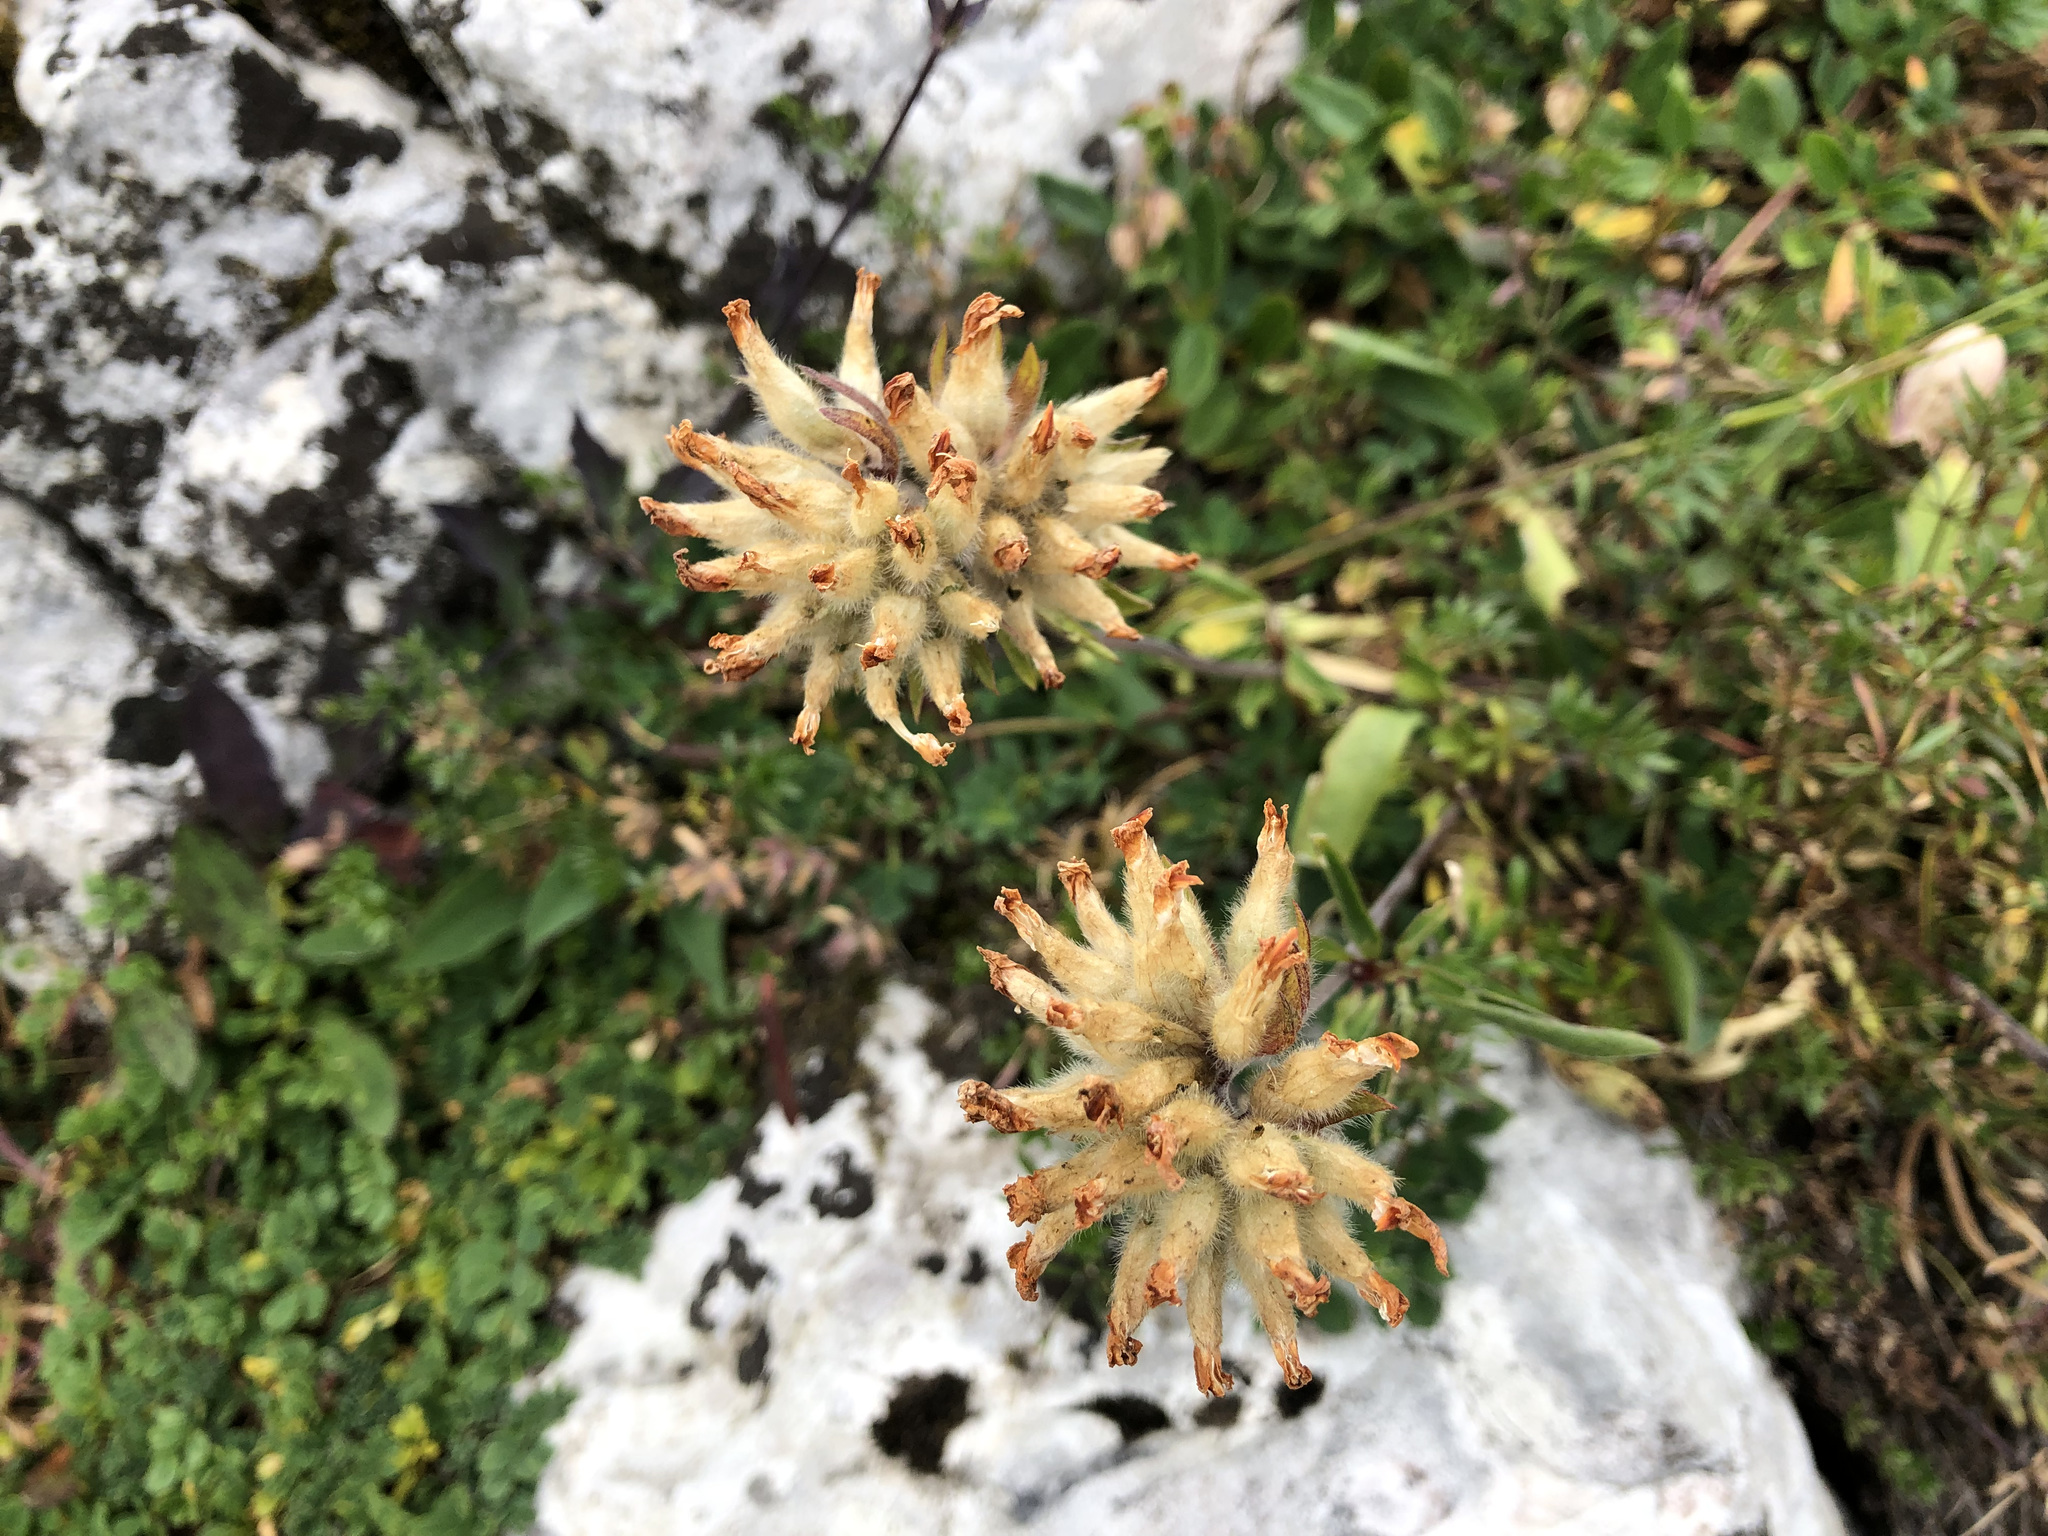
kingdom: Plantae
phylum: Tracheophyta
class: Magnoliopsida
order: Fabales
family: Fabaceae
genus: Anthyllis
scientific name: Anthyllis vulneraria
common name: Kidney vetch
